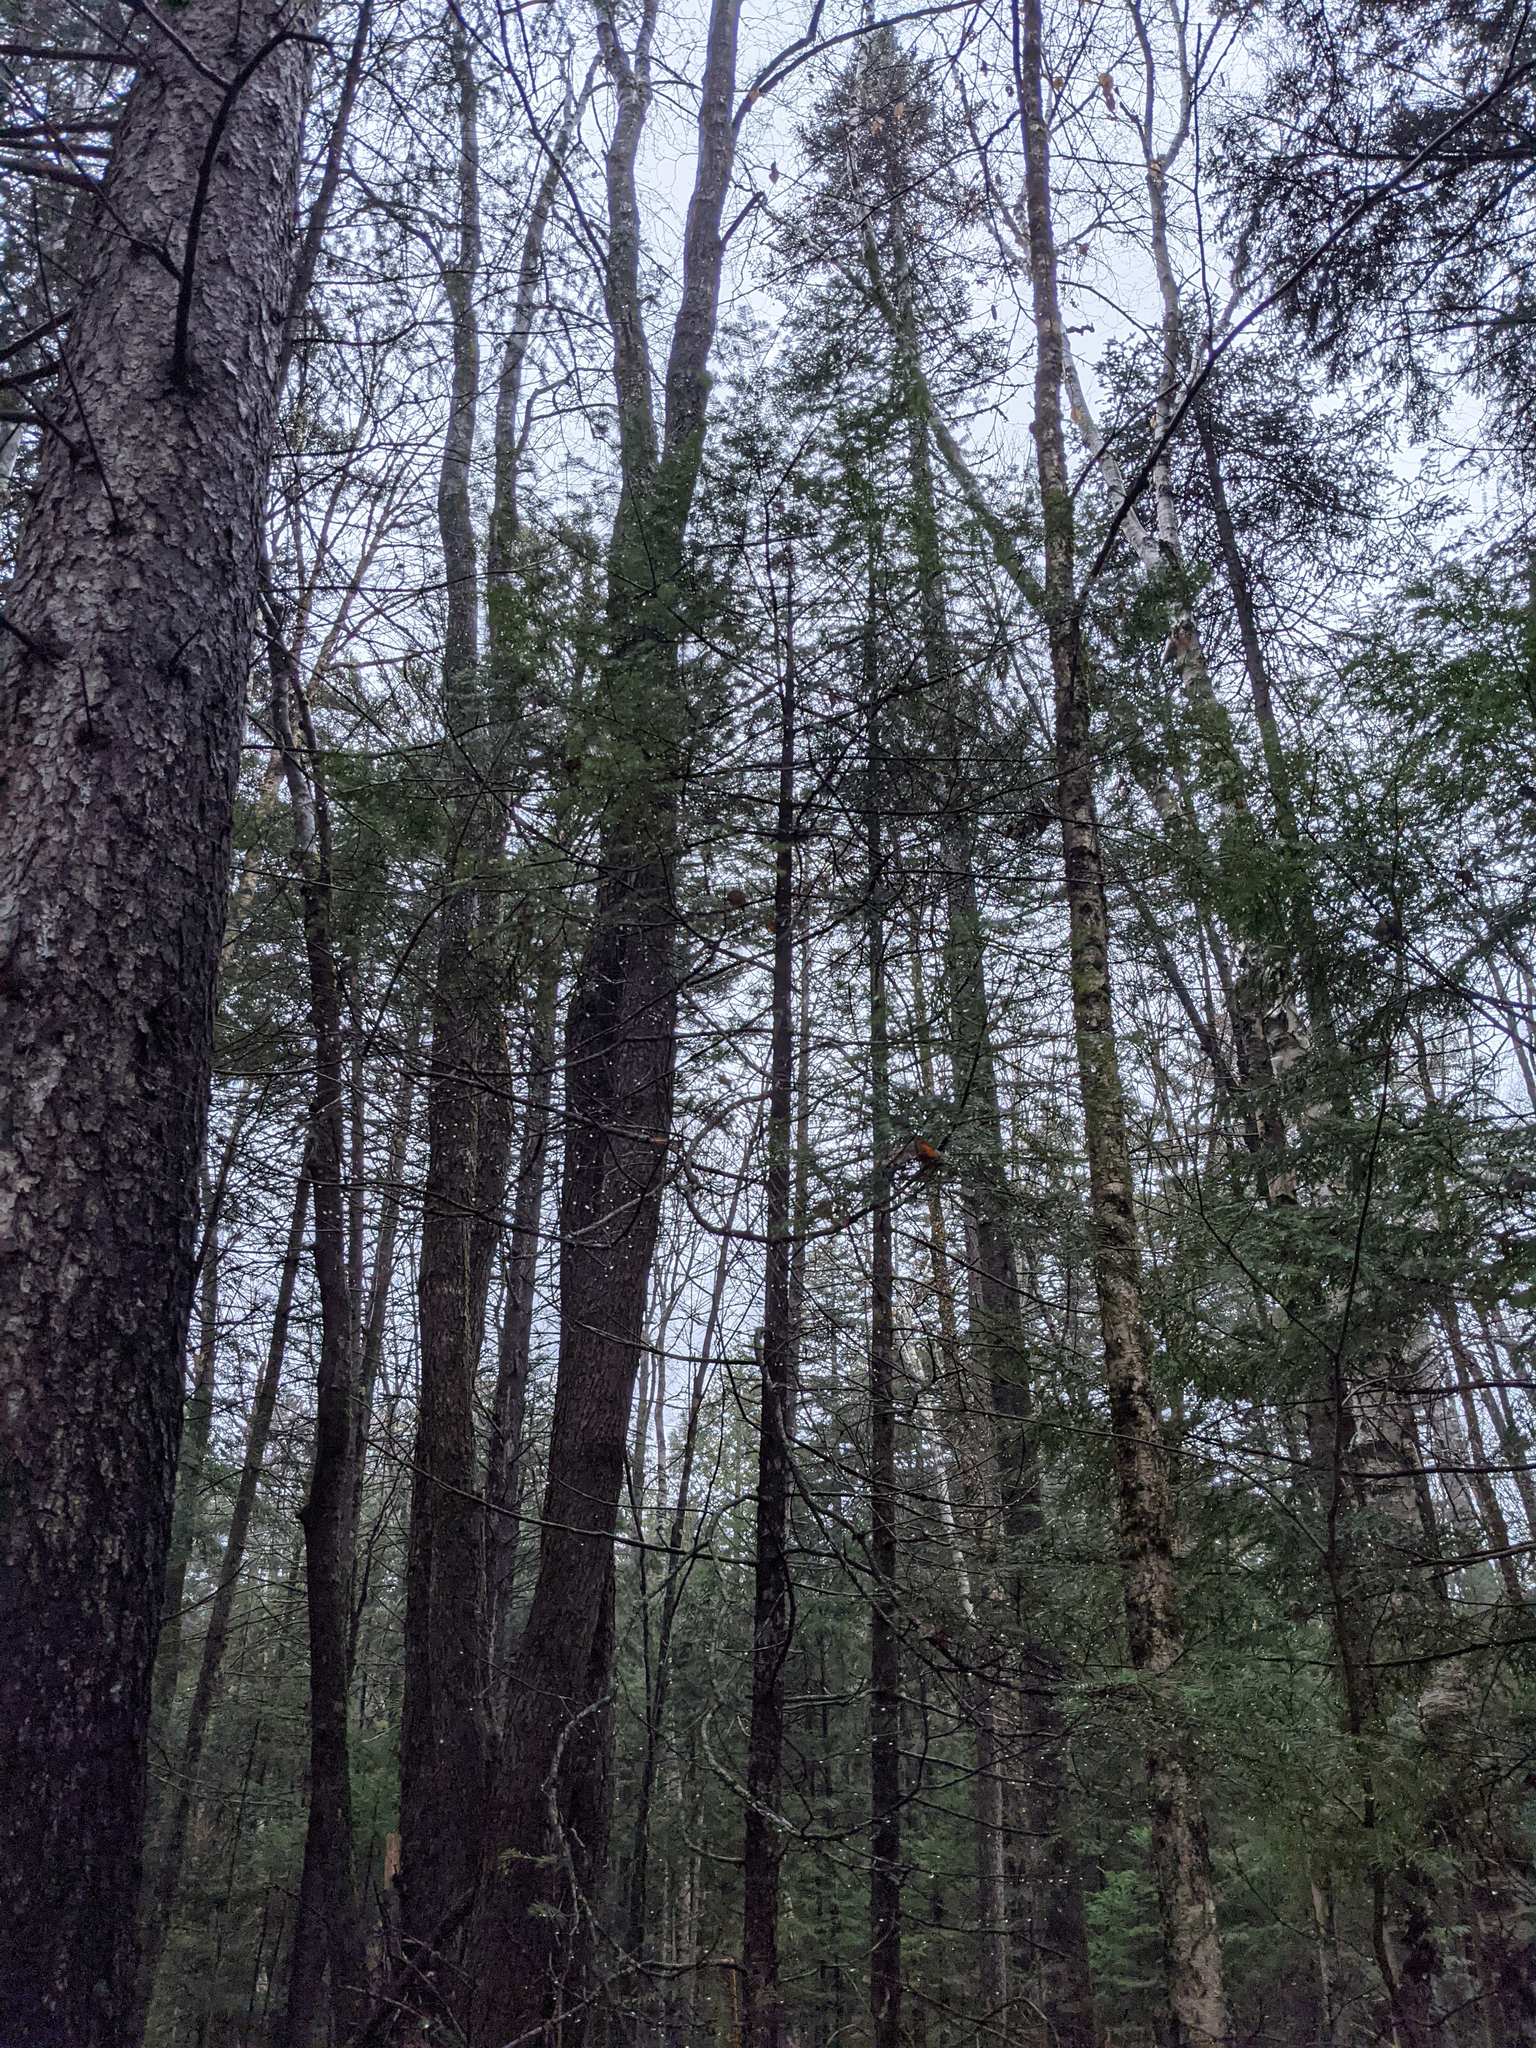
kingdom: Plantae
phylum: Tracheophyta
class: Pinopsida
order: Pinales
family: Pinaceae
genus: Abies
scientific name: Abies balsamea
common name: Balsam fir
